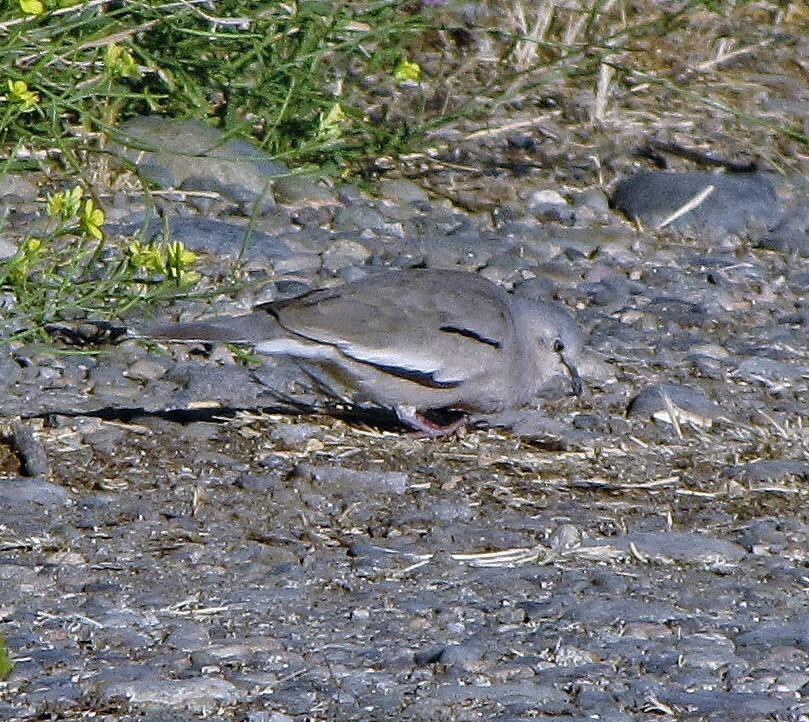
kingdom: Animalia
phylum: Chordata
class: Aves
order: Columbiformes
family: Columbidae
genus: Columbina
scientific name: Columbina picui
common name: Picui ground dove
